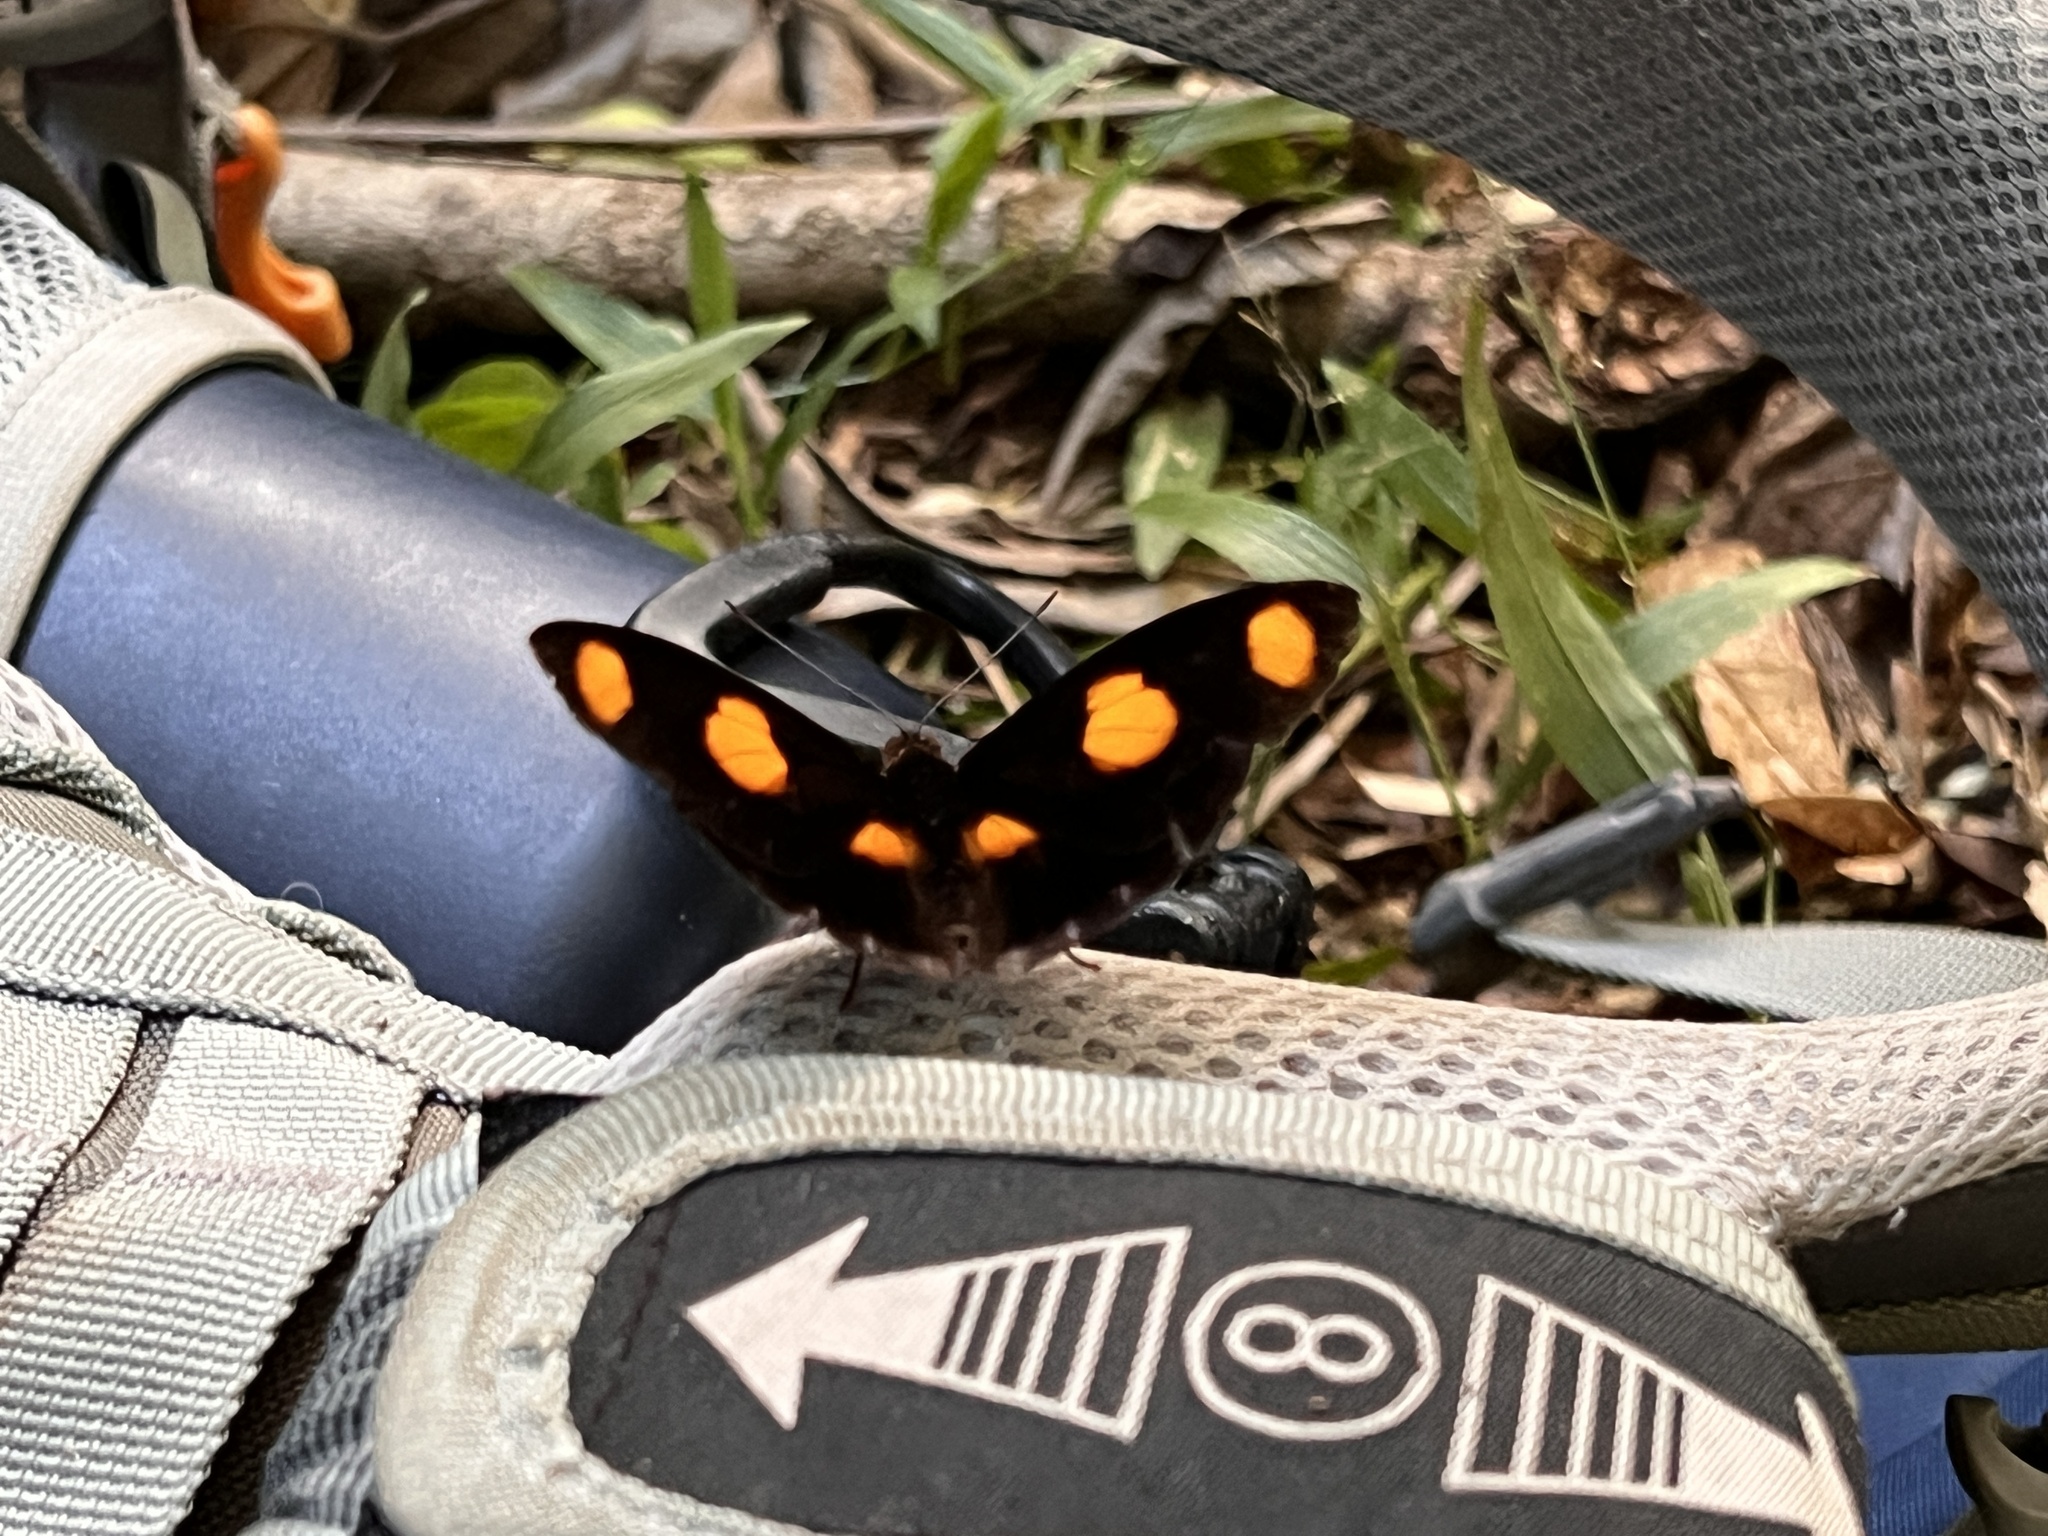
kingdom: Animalia
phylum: Arthropoda
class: Insecta
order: Lepidoptera
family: Nymphalidae
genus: Catonephele
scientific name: Catonephele numilia
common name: Blue-frosted banner
